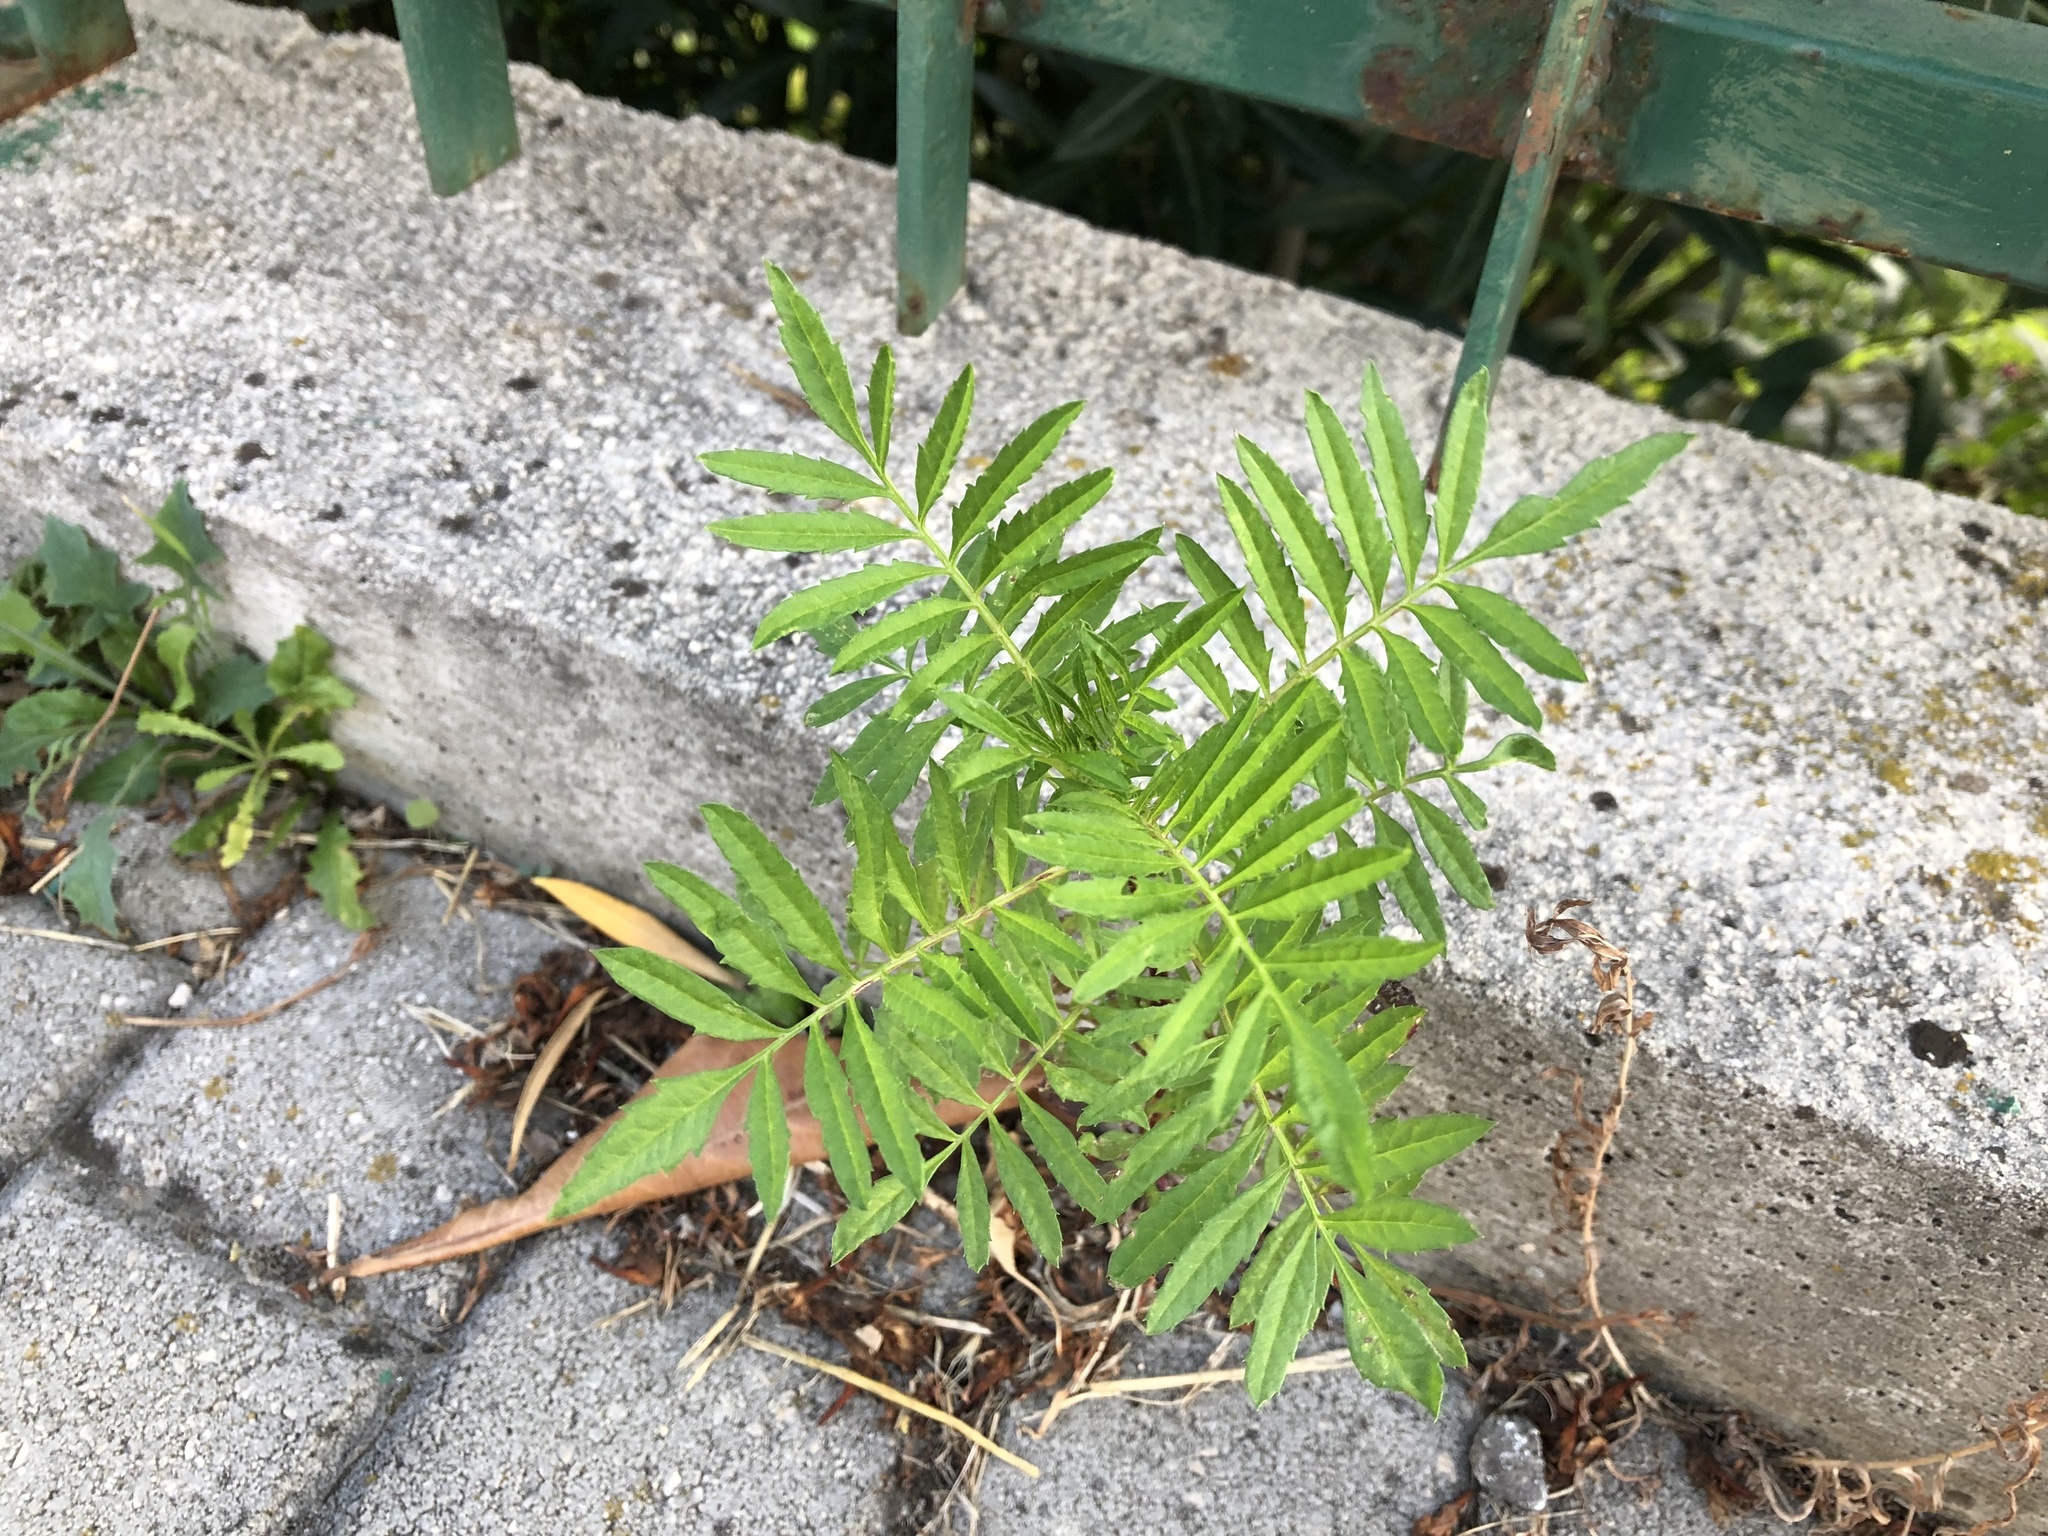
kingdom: Plantae
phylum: Tracheophyta
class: Magnoliopsida
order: Asterales
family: Asteraceae
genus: Tagetes
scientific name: Tagetes erecta
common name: African marigold
